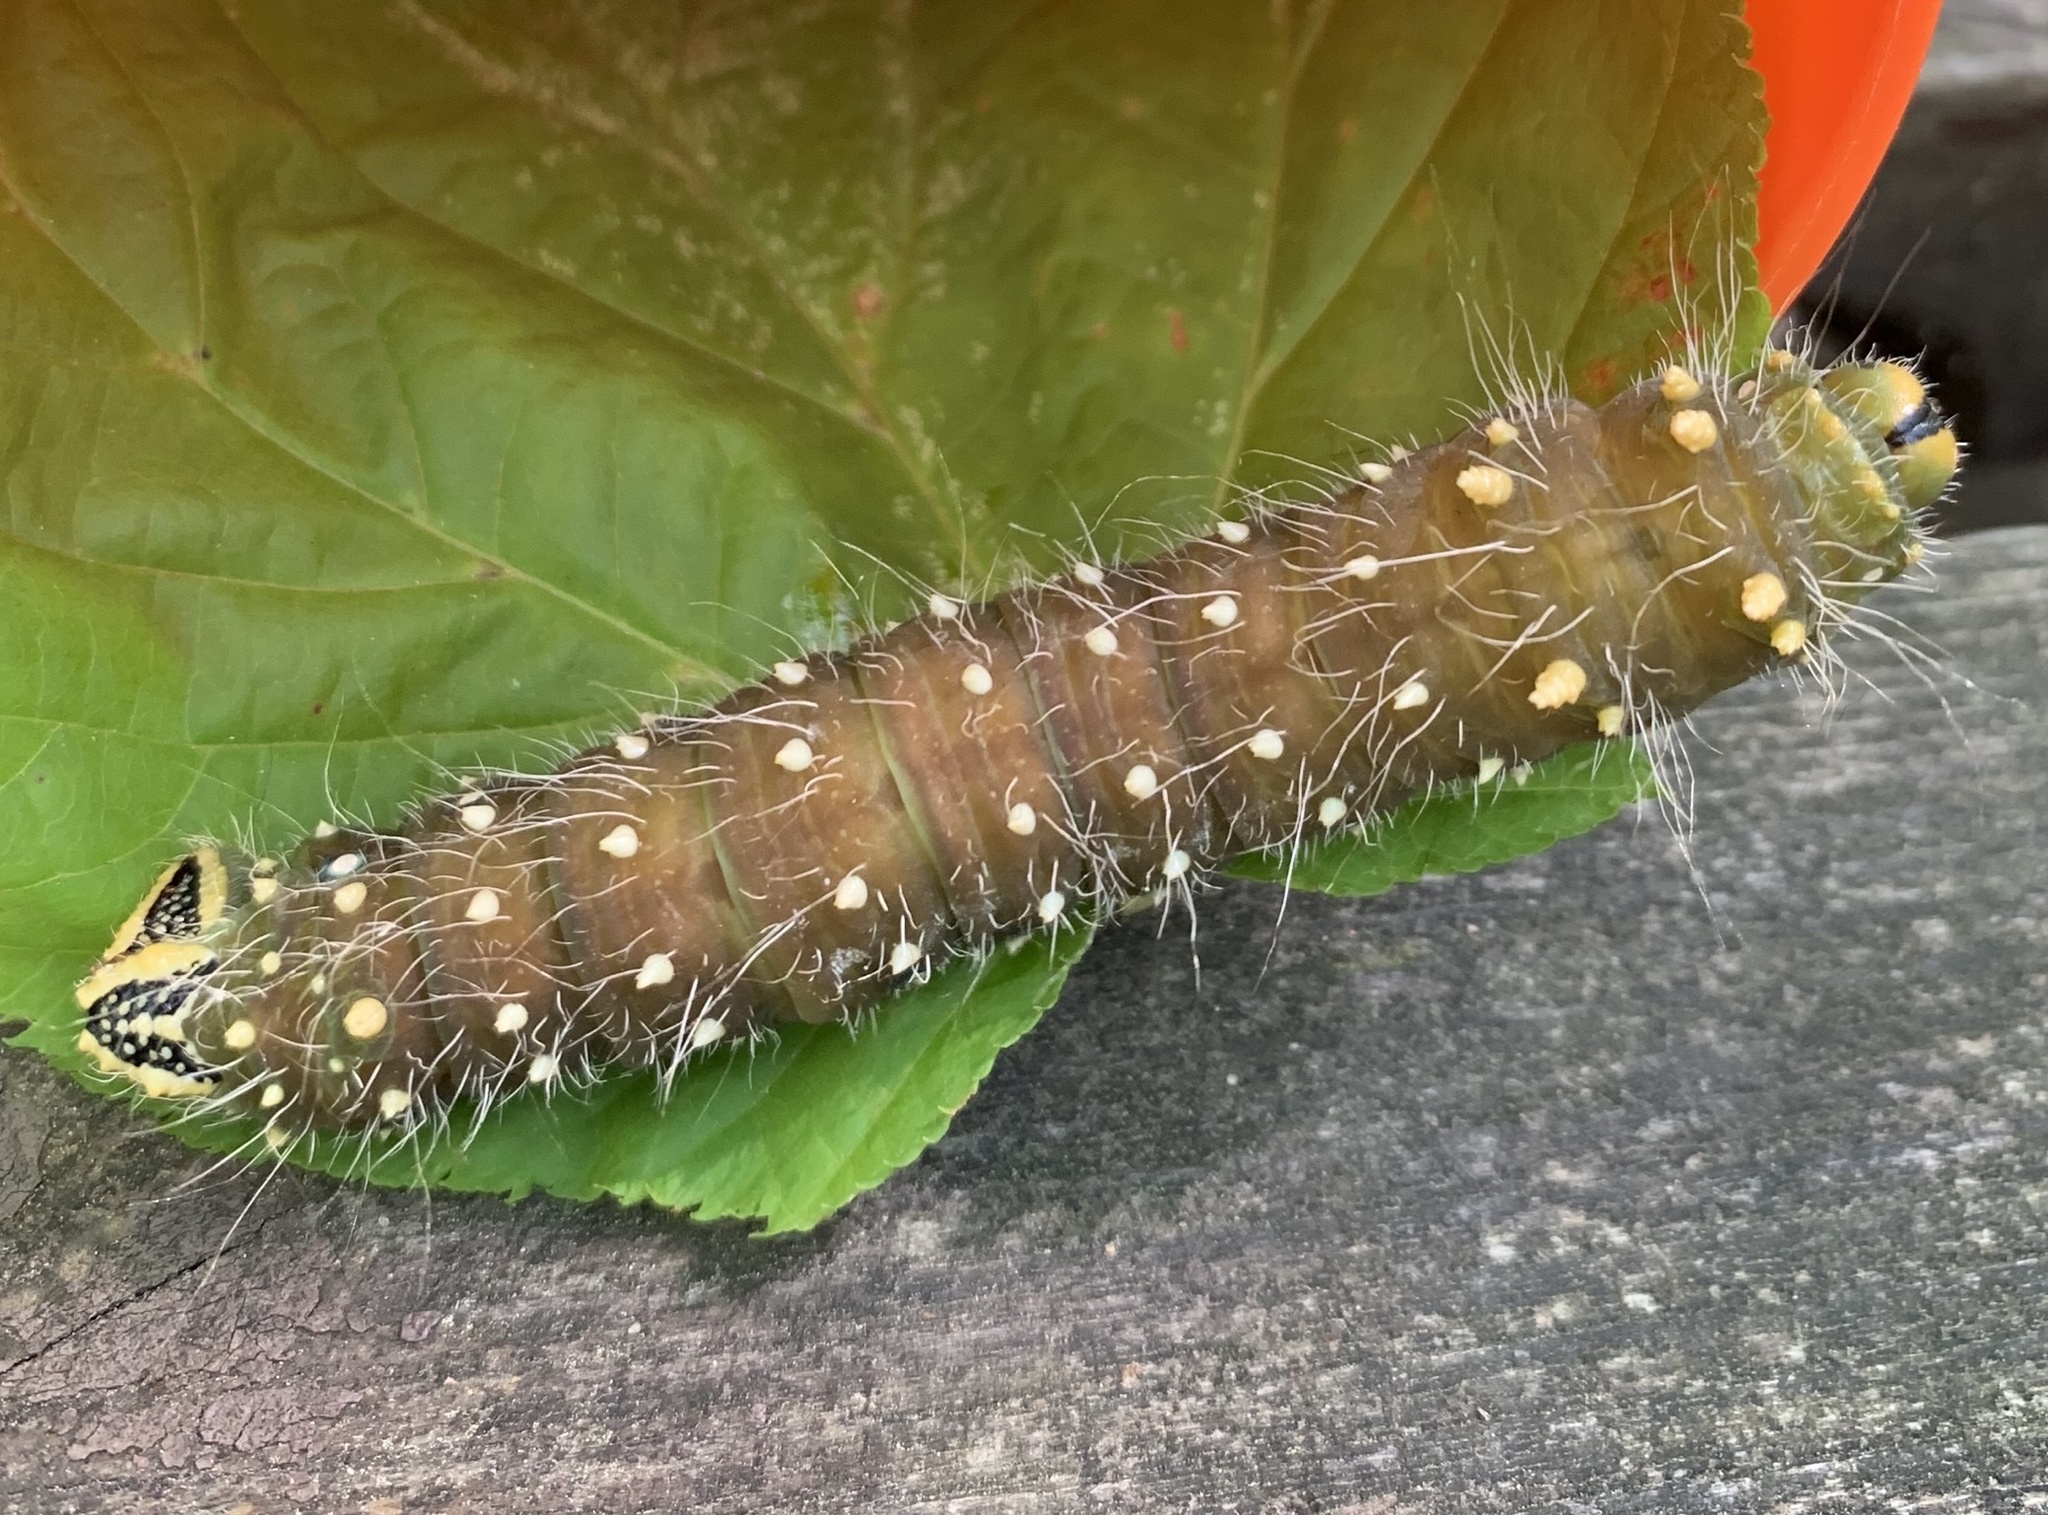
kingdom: Animalia
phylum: Arthropoda
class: Insecta
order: Lepidoptera
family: Saturniidae
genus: Eacles
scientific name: Eacles
